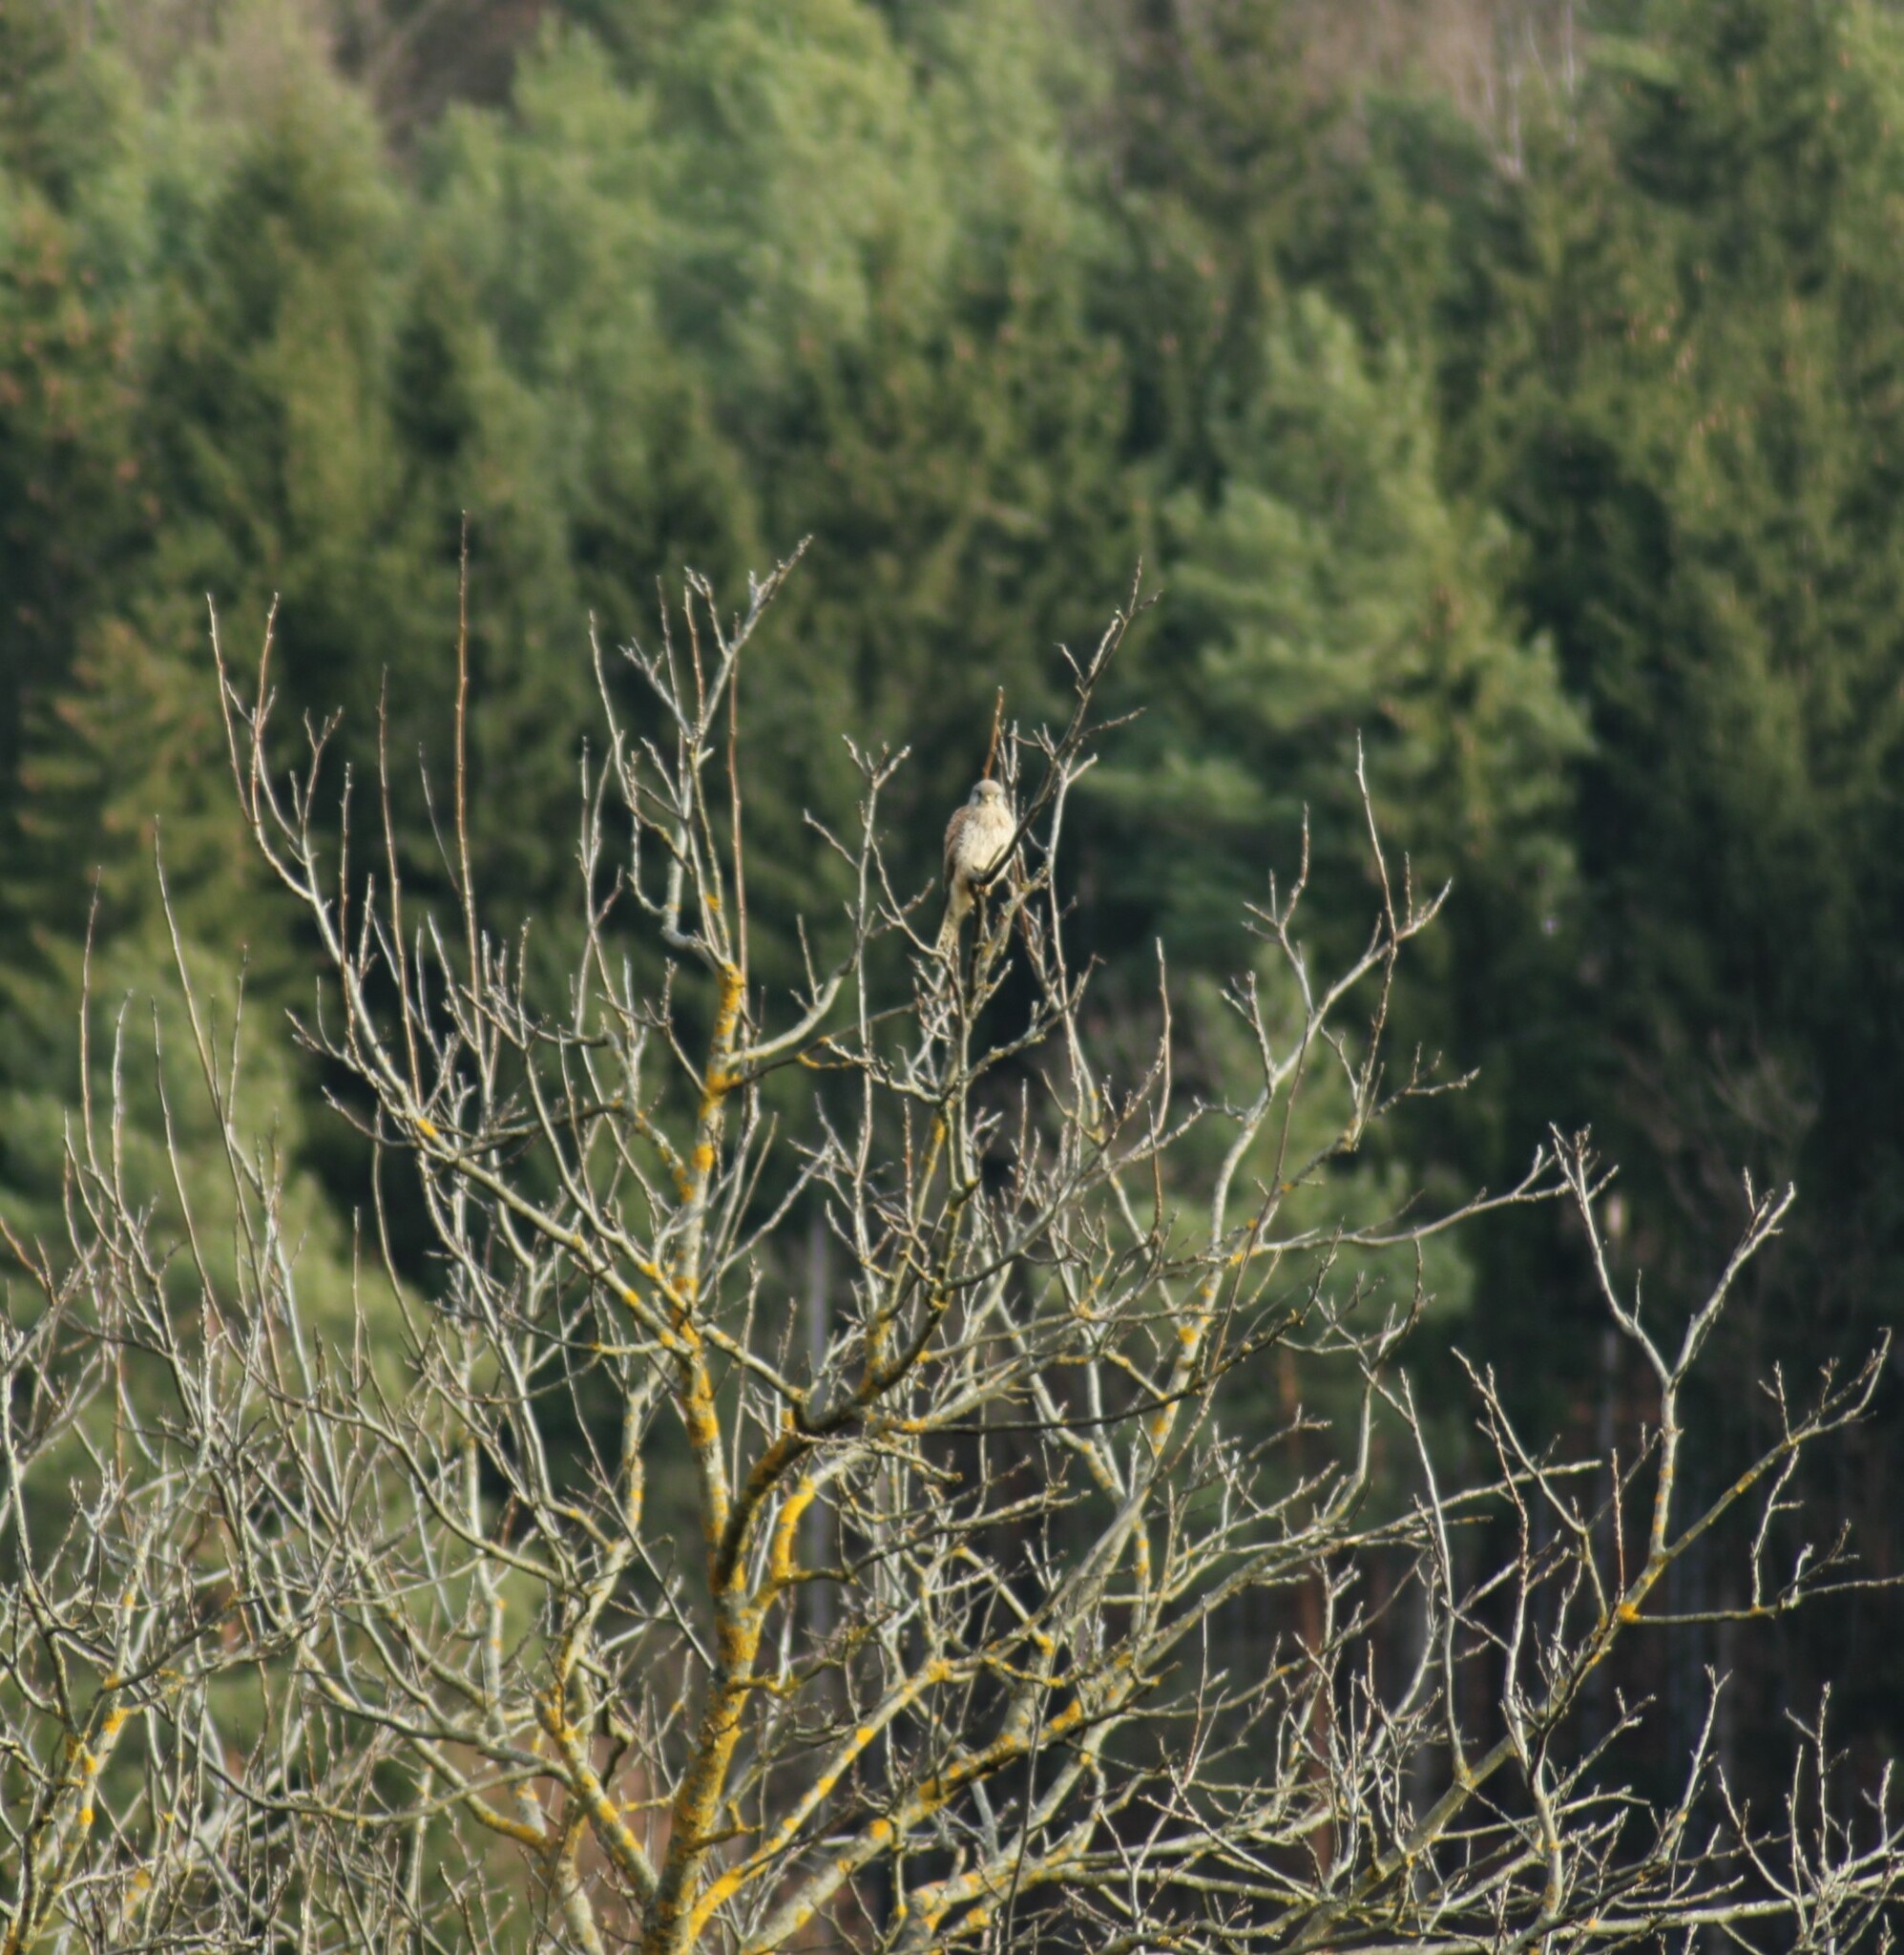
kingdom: Animalia
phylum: Chordata
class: Aves
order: Falconiformes
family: Falconidae
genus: Falco
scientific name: Falco tinnunculus
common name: Common kestrel
